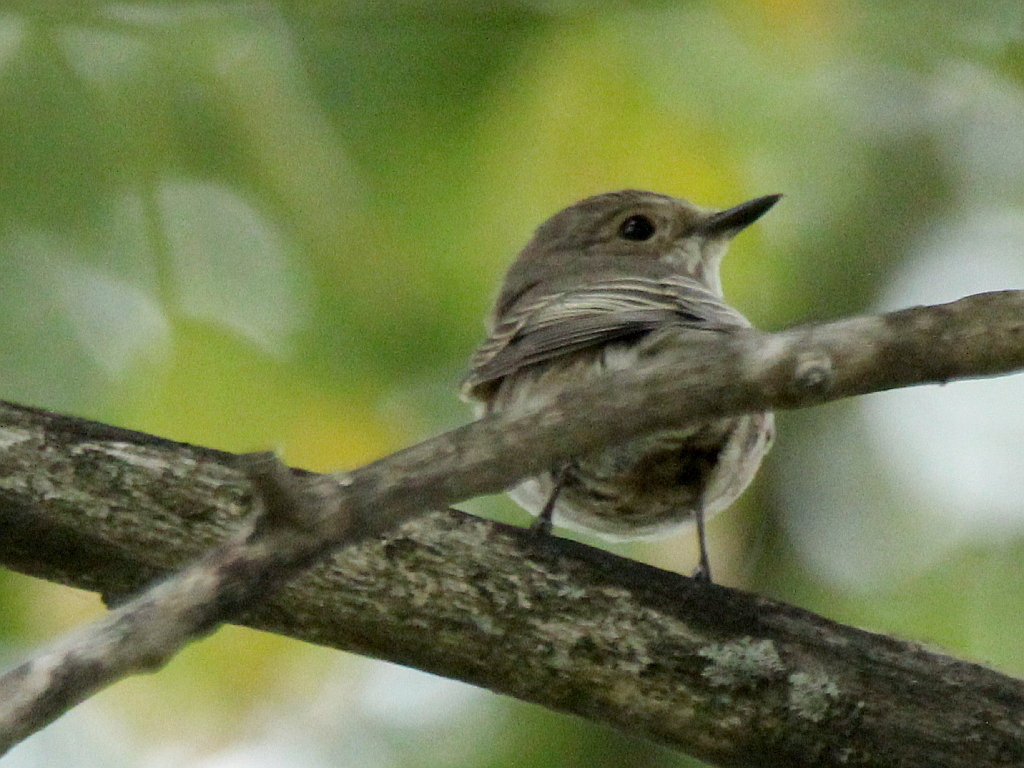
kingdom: Animalia
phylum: Chordata
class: Aves
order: Passeriformes
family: Muscicapidae
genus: Muscicapa
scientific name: Muscicapa striata
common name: Spotted flycatcher
